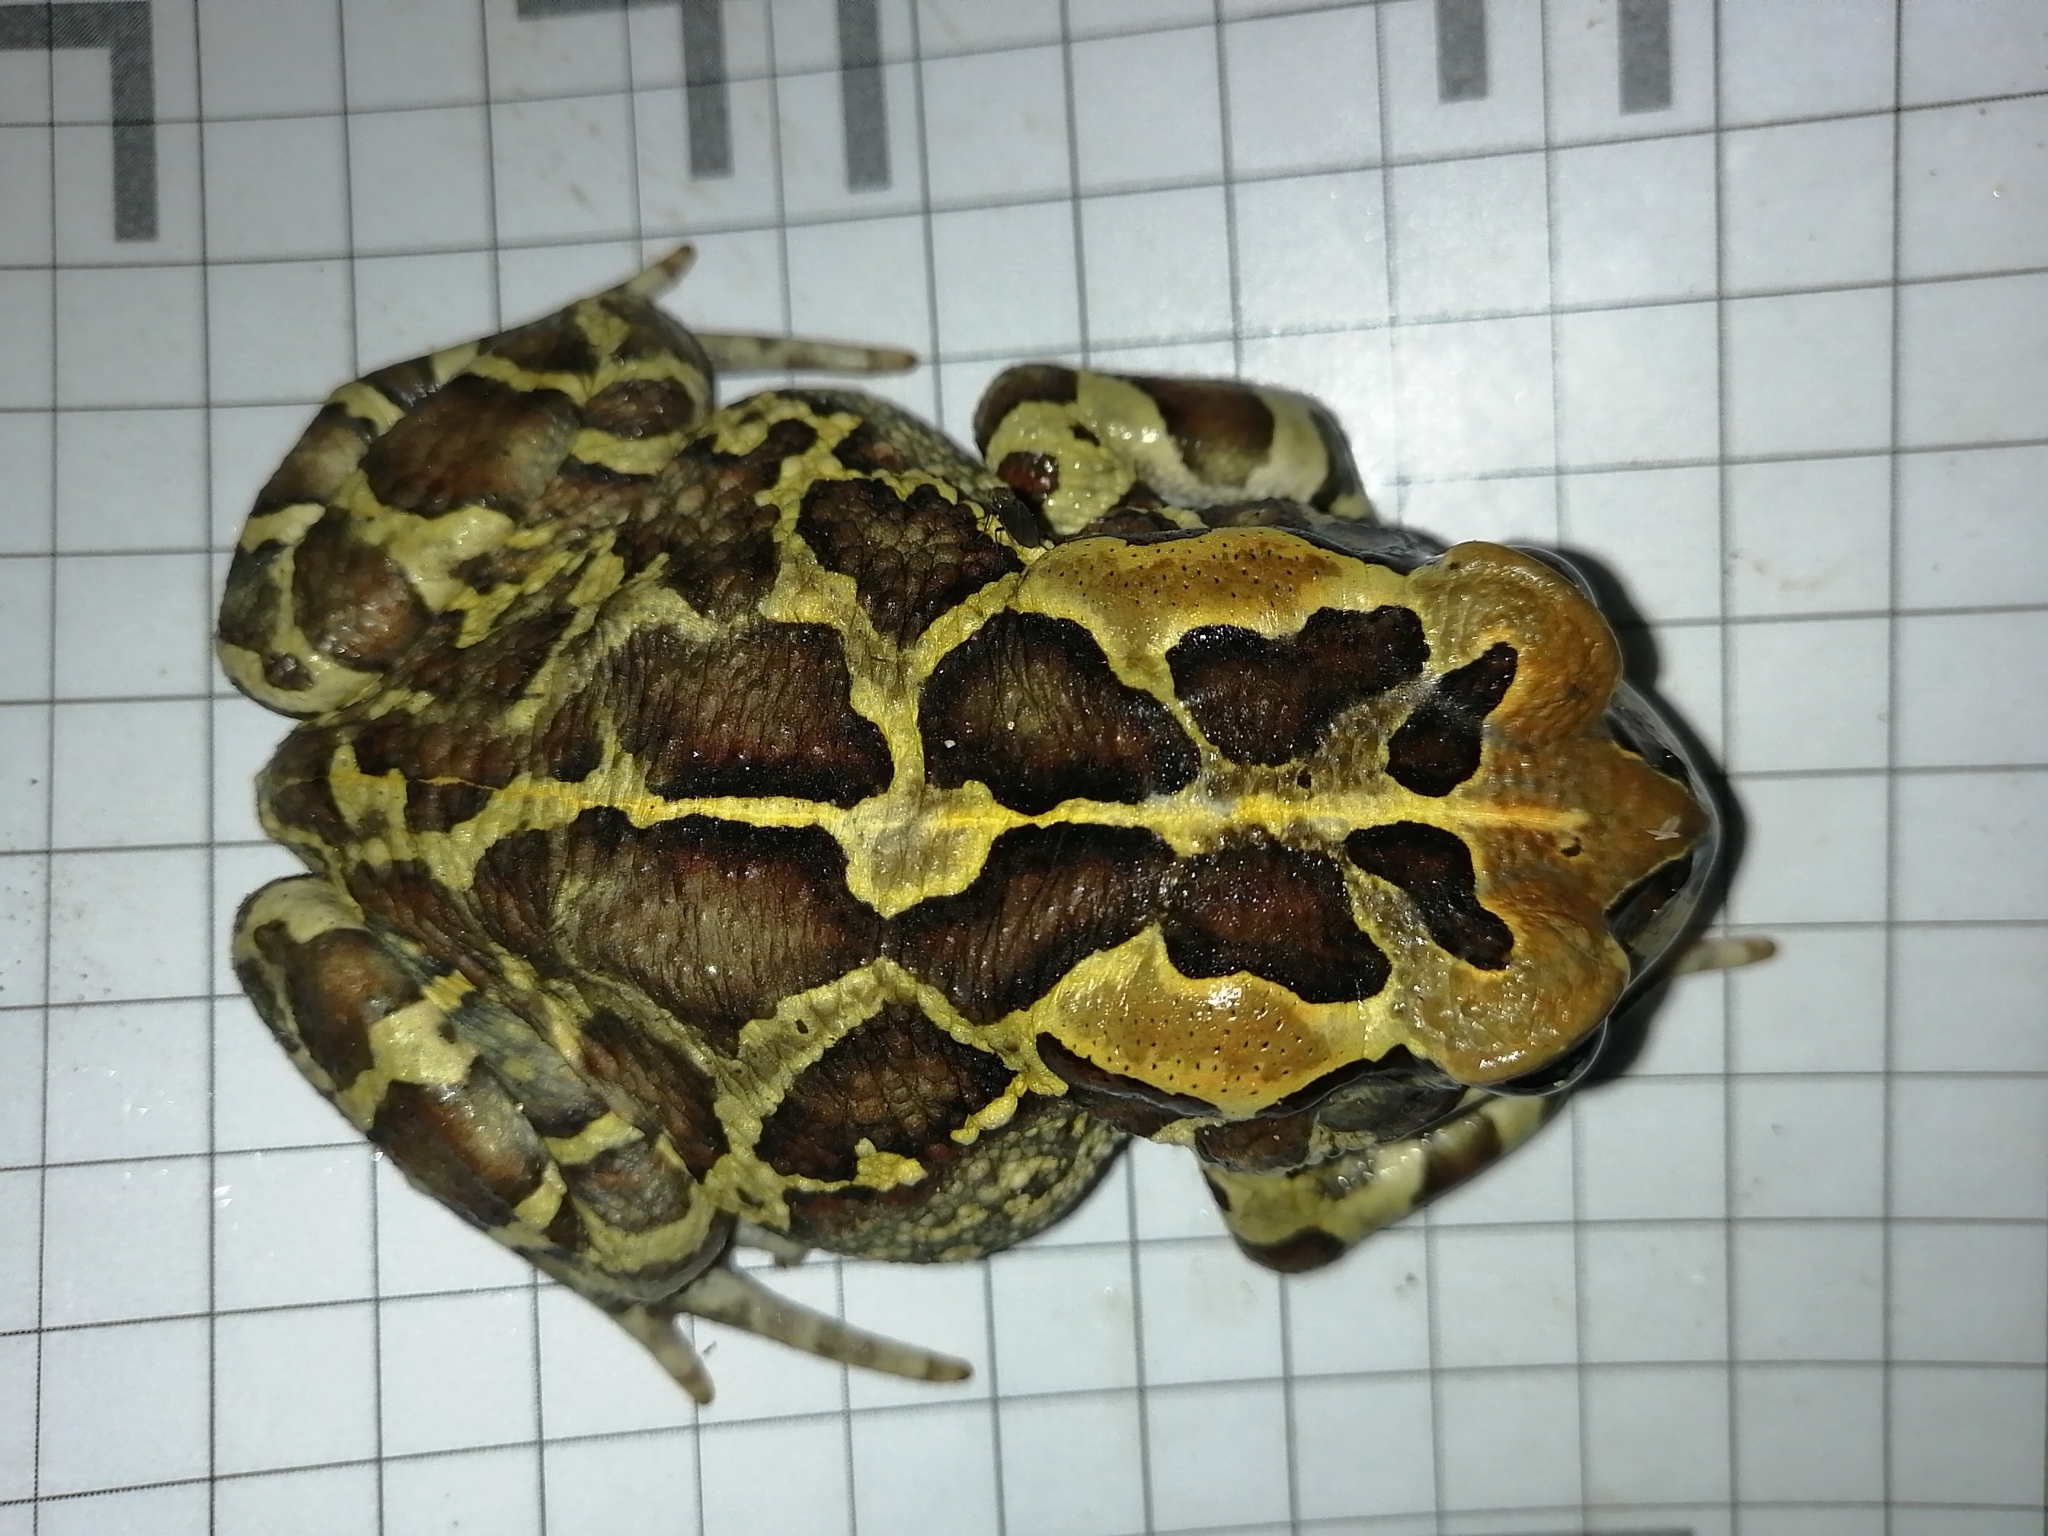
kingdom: Animalia
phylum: Chordata
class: Amphibia
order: Anura
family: Bufonidae
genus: Sclerophrys
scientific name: Sclerophrys pantherina
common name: Panther toad
